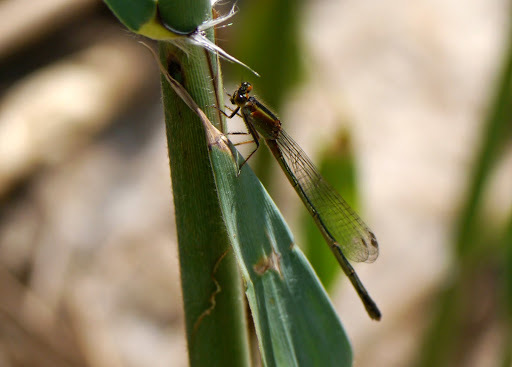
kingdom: Animalia
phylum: Arthropoda
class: Insecta
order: Odonata
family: Coenagrionidae
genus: Ischnura
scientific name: Ischnura ramburii
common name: Rambur's forktail
